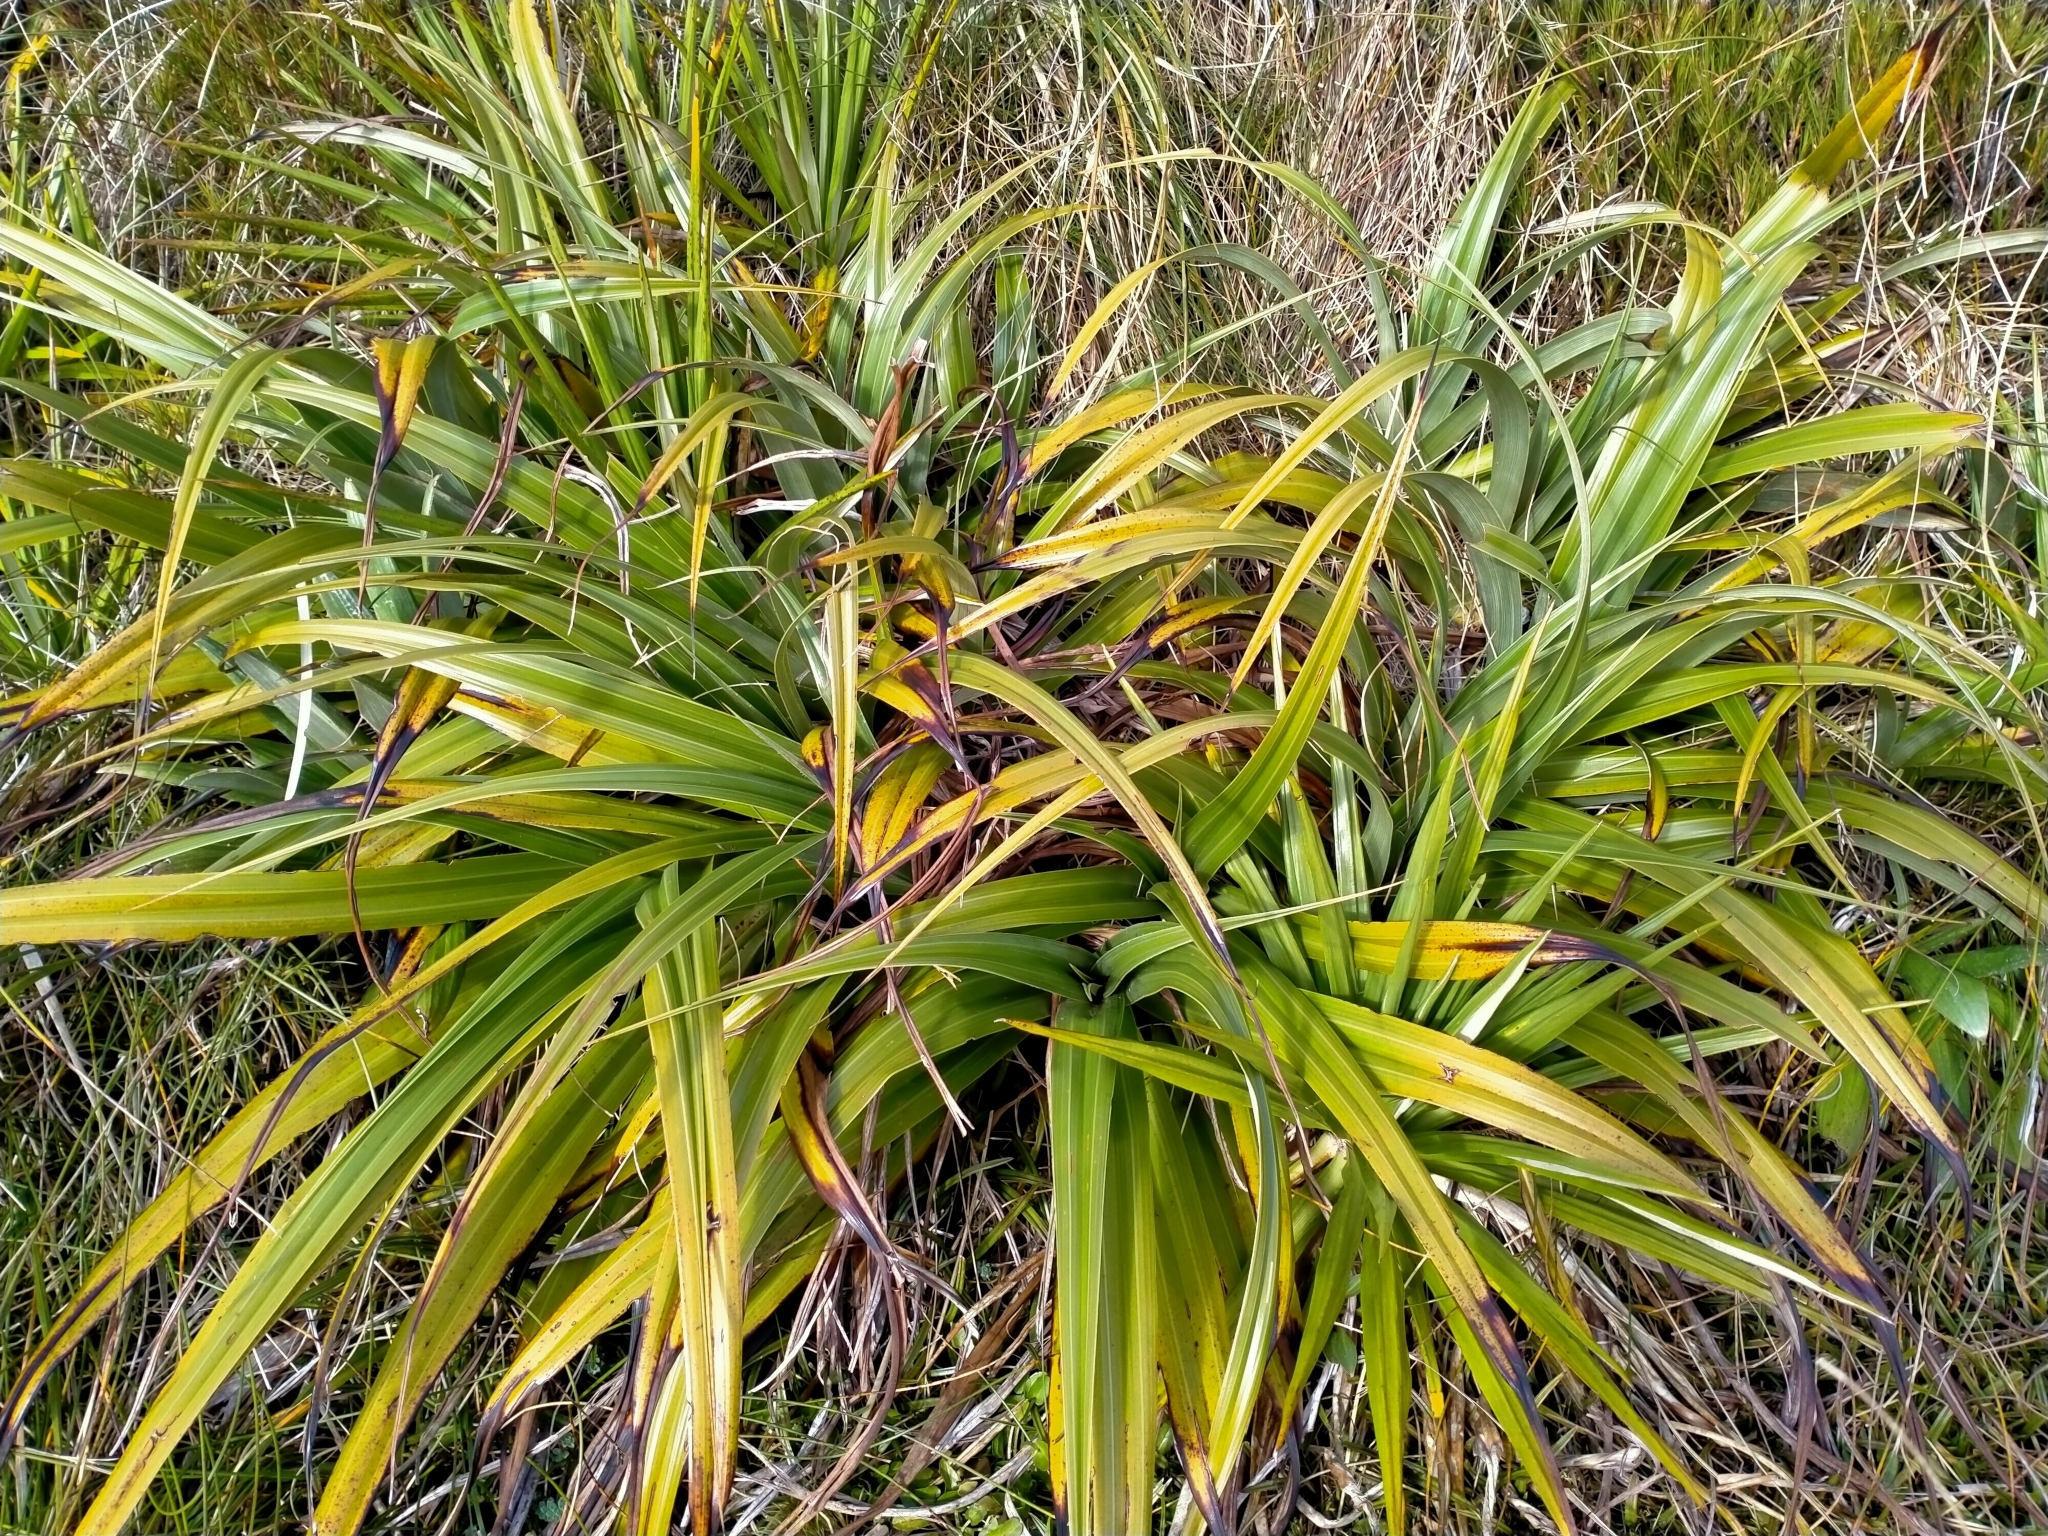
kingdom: Plantae
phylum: Tracheophyta
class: Liliopsida
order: Asparagales
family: Asteliaceae
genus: Astelia
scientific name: Astelia petriei
